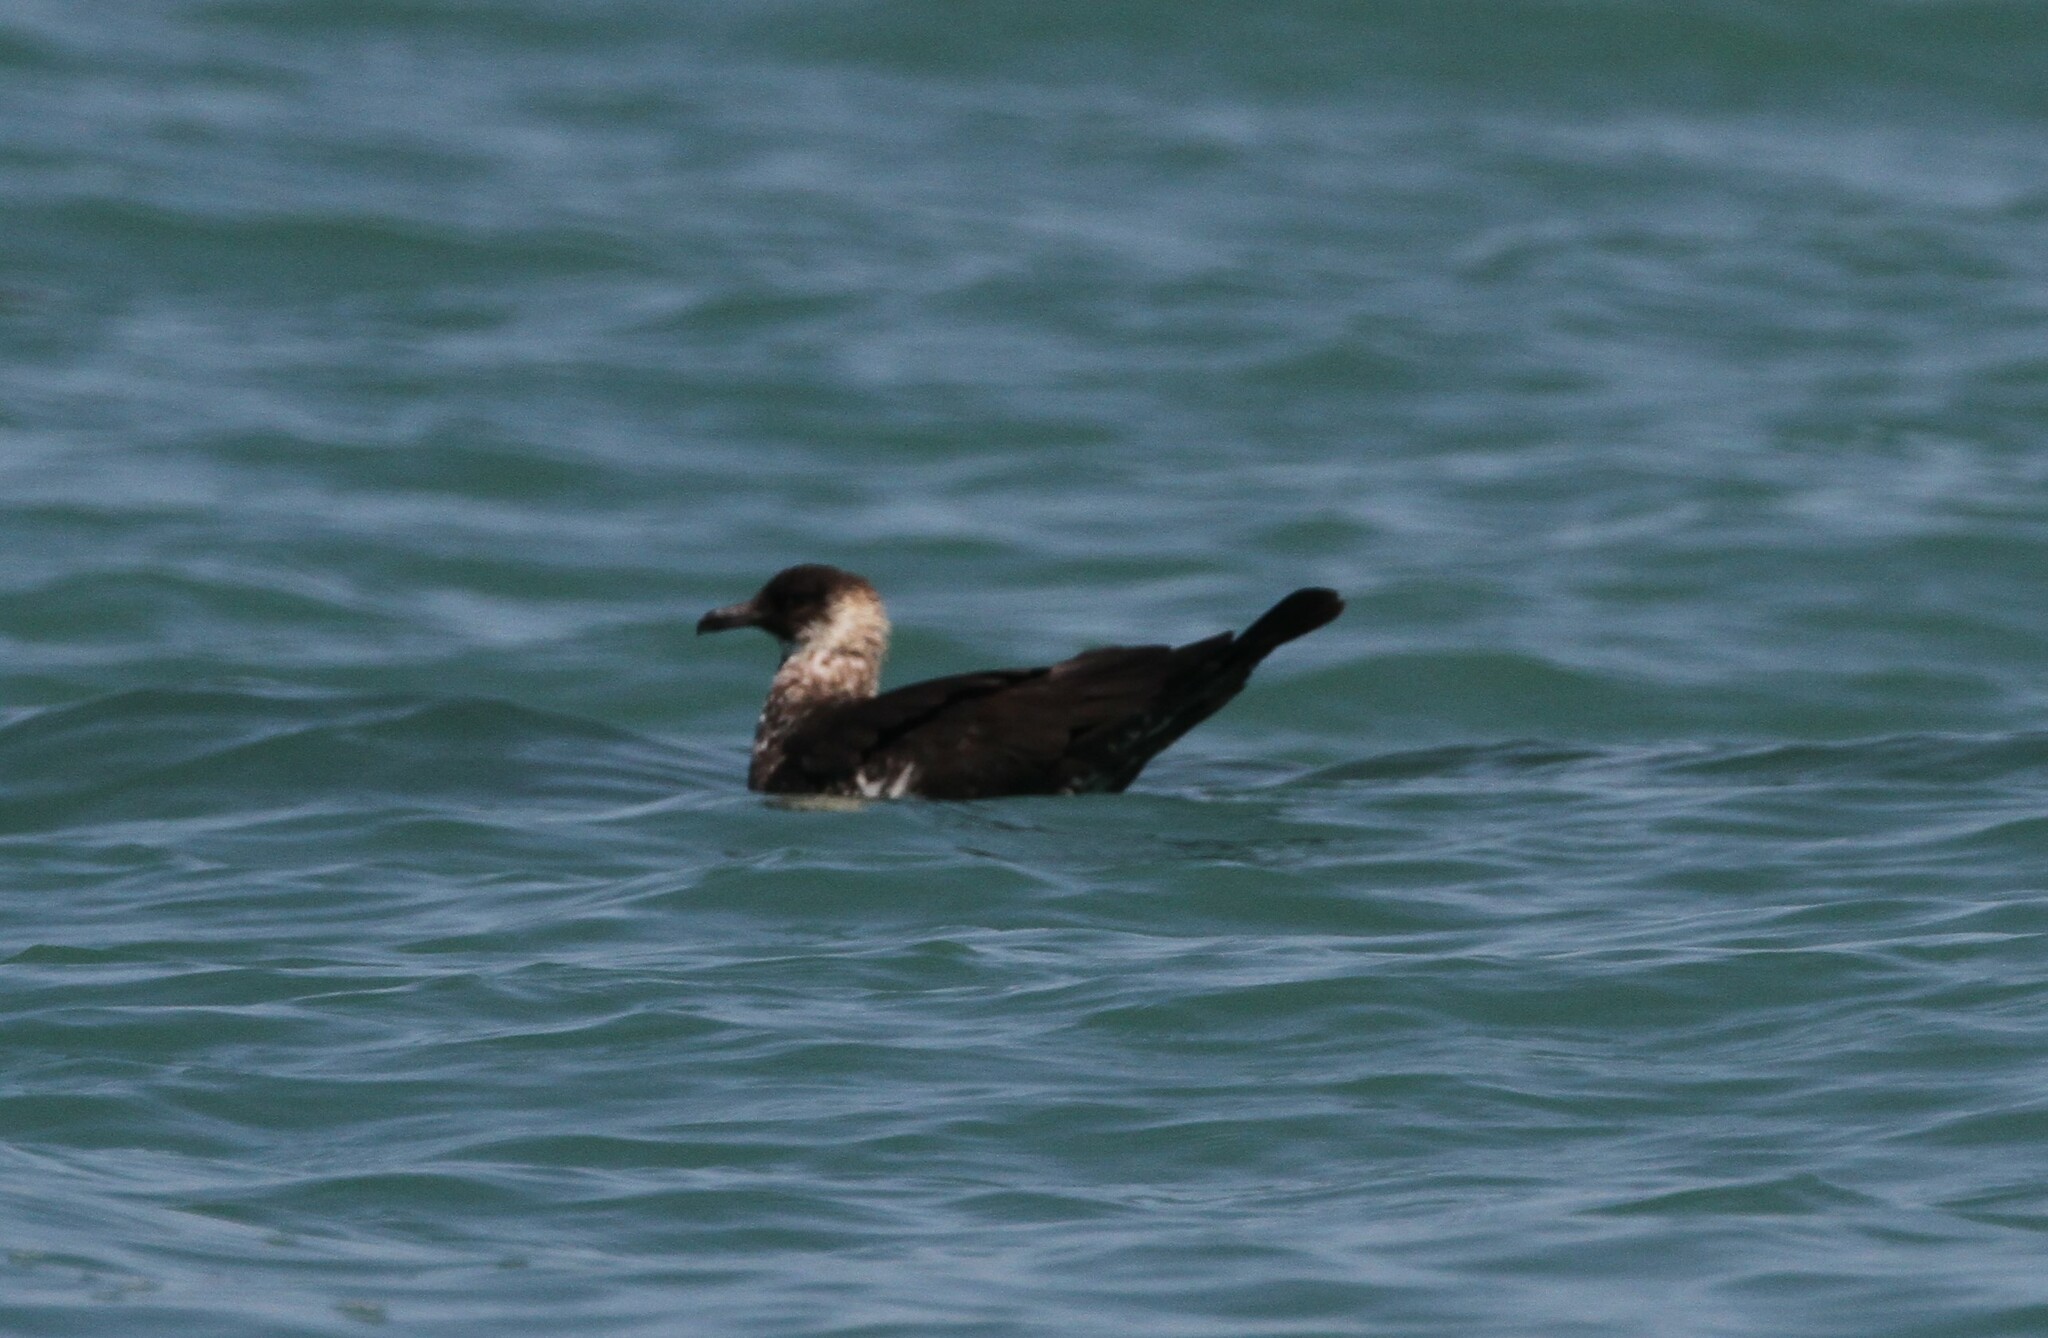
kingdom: Animalia
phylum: Chordata
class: Aves
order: Charadriiformes
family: Stercorariidae
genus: Stercorarius
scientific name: Stercorarius pomarinus
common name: Pomarine jaeger
